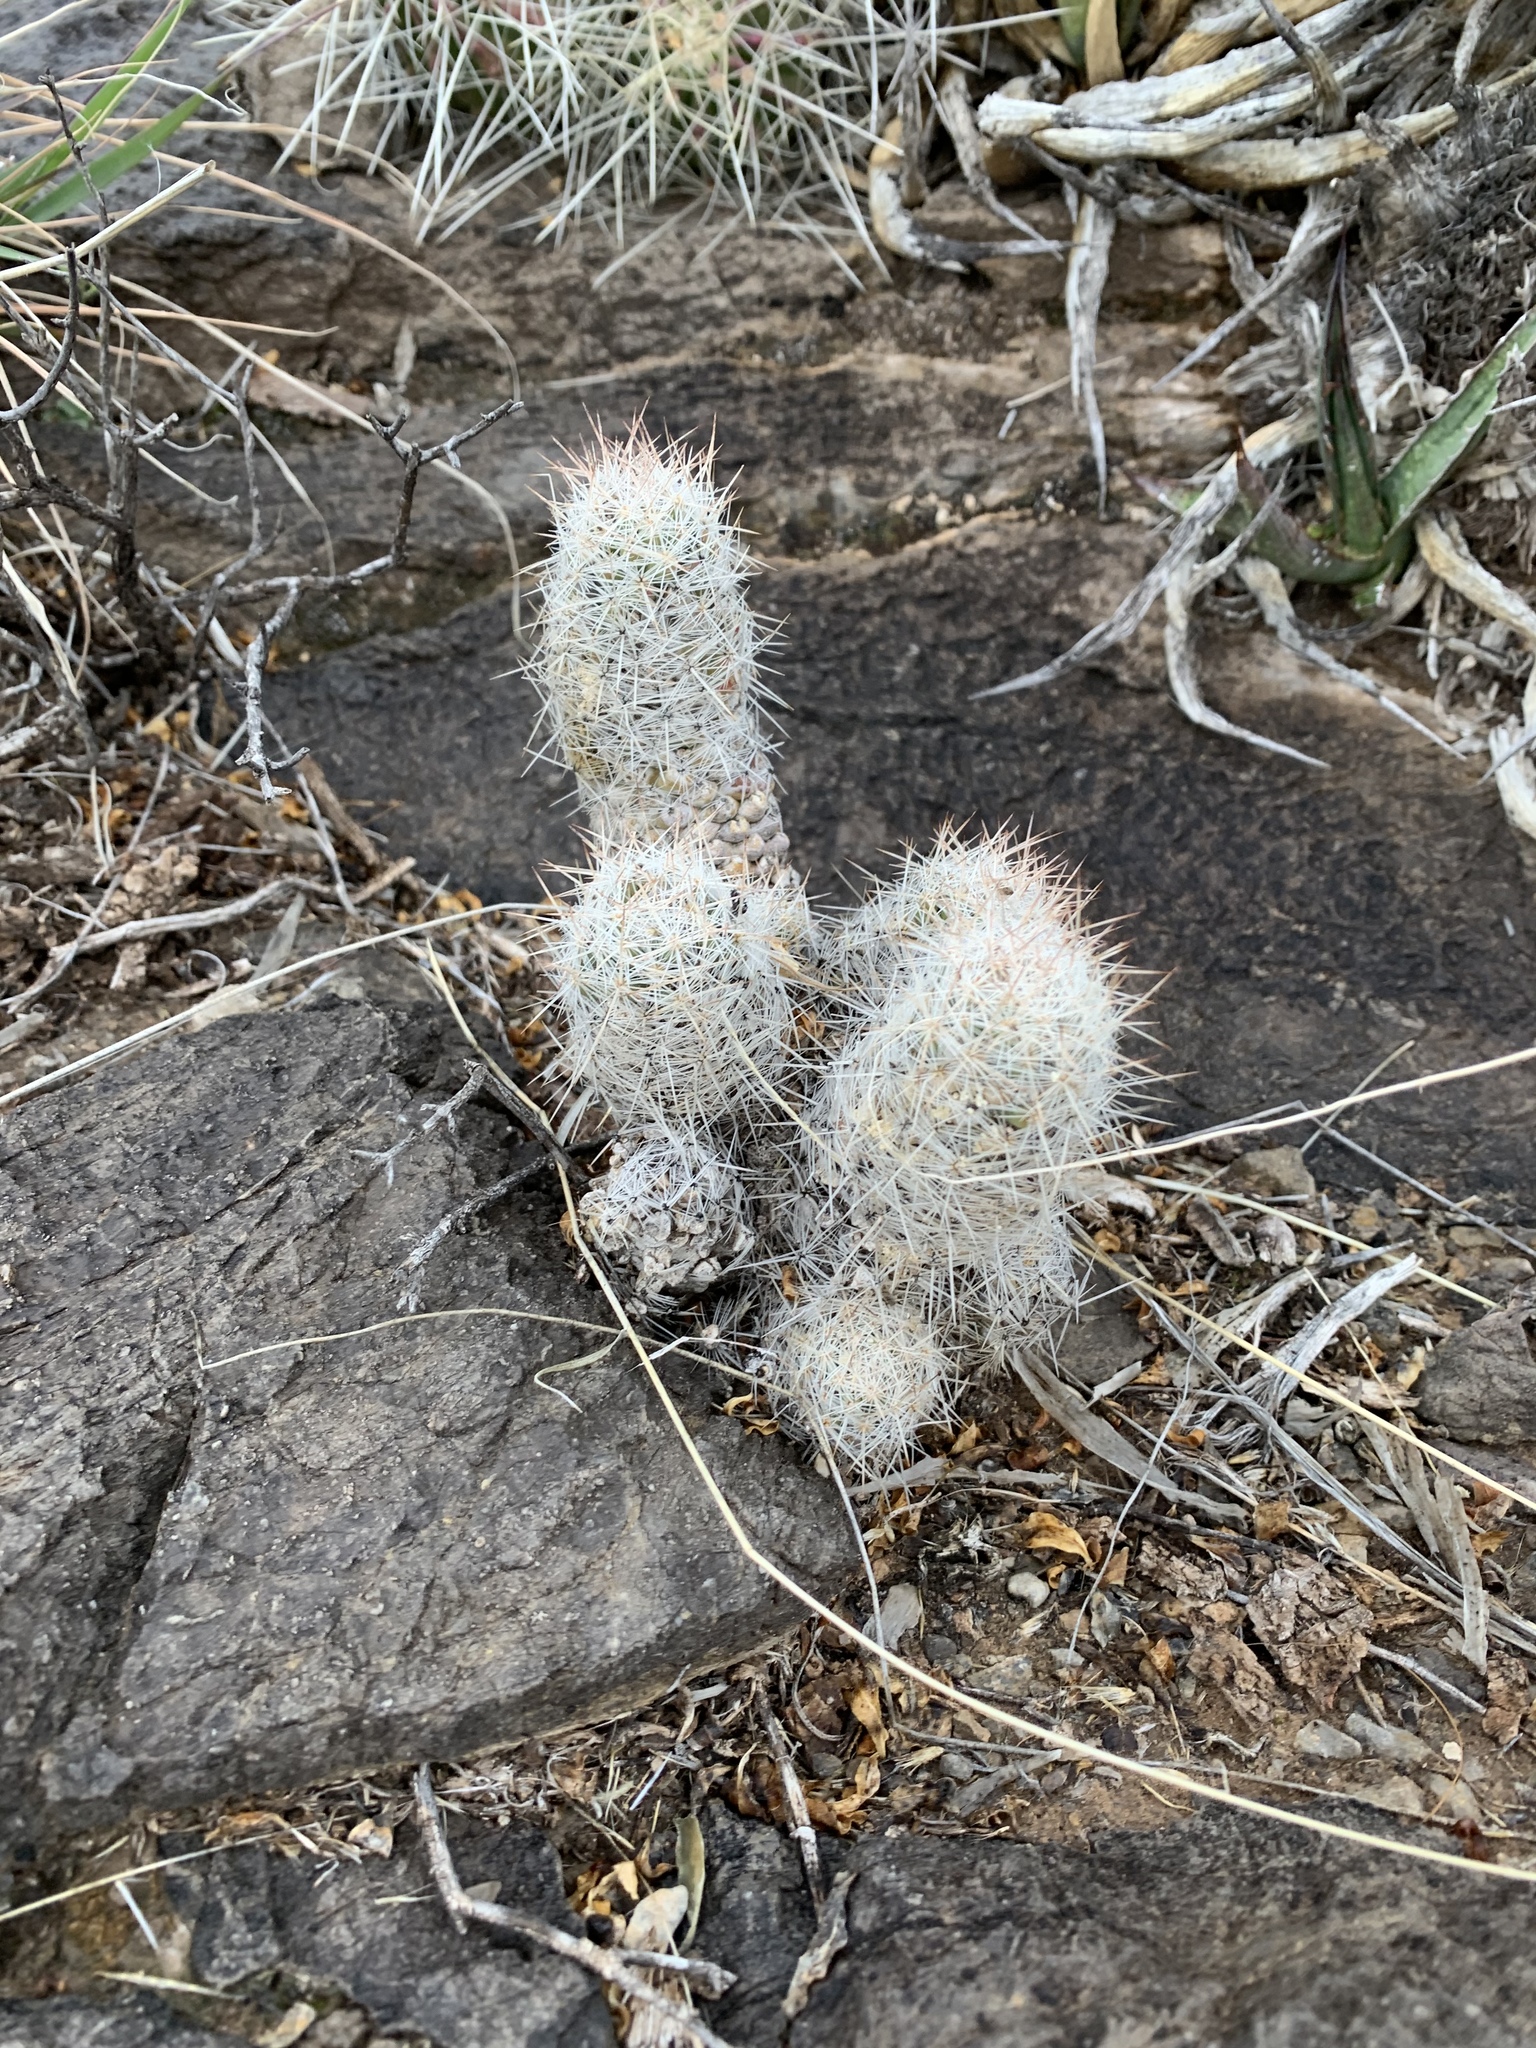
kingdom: Plantae
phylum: Tracheophyta
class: Magnoliopsida
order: Caryophyllales
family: Cactaceae
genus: Pelecyphora
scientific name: Pelecyphora tuberculosa
